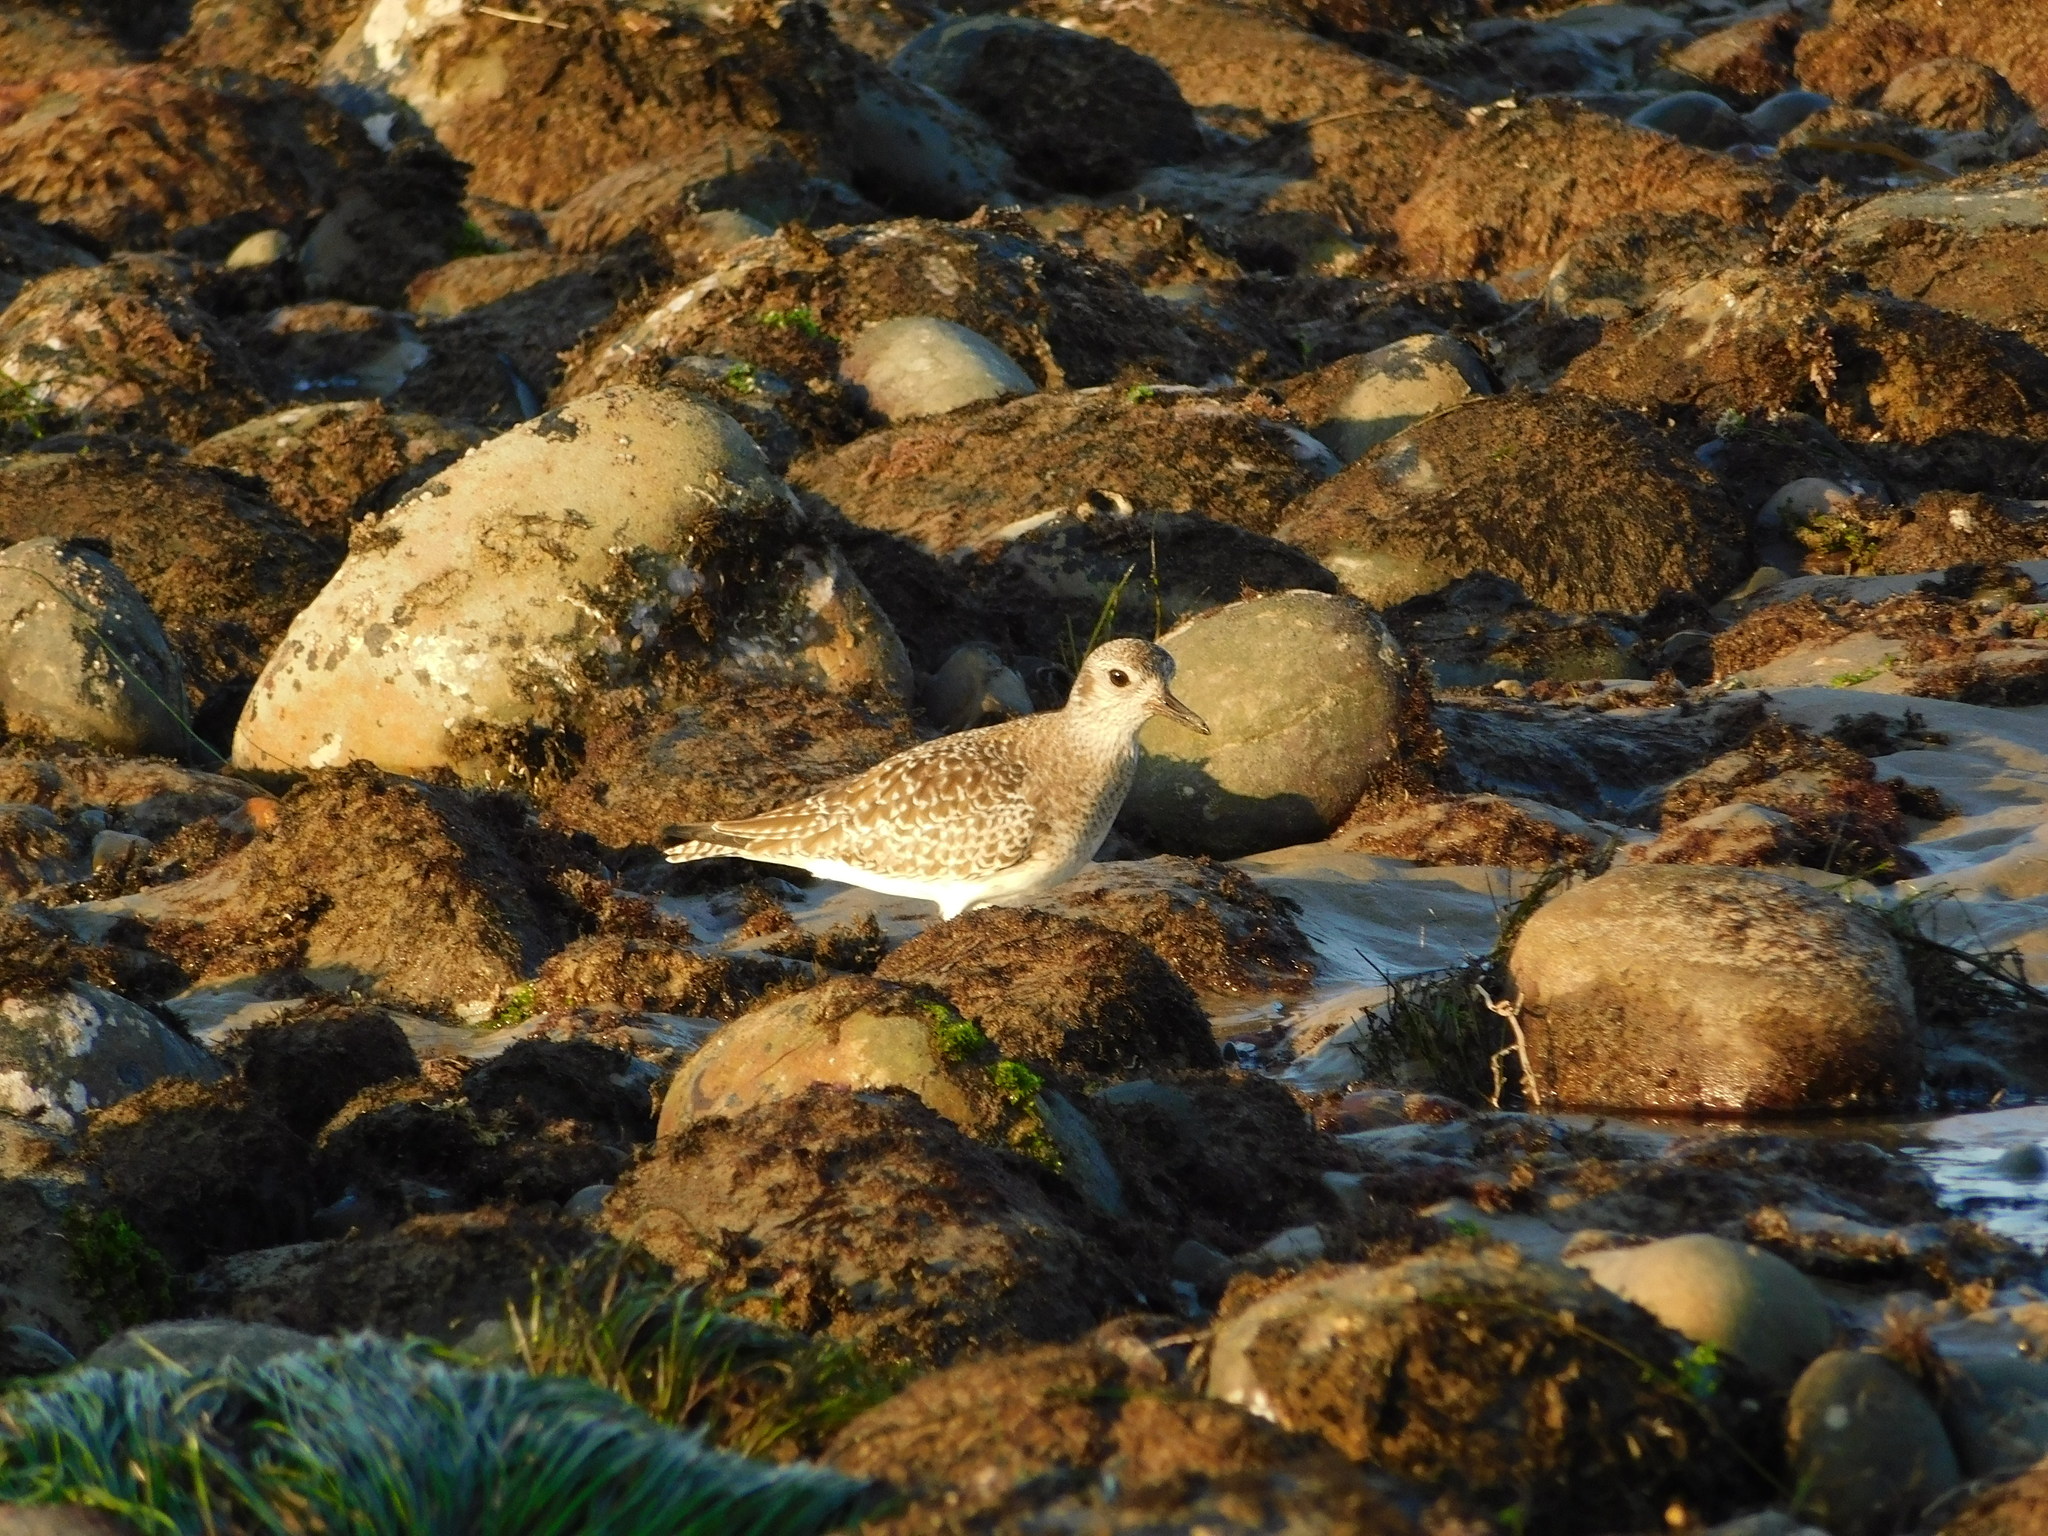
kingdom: Animalia
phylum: Chordata
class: Aves
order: Charadriiformes
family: Charadriidae
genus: Pluvialis
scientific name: Pluvialis squatarola
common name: Grey plover
